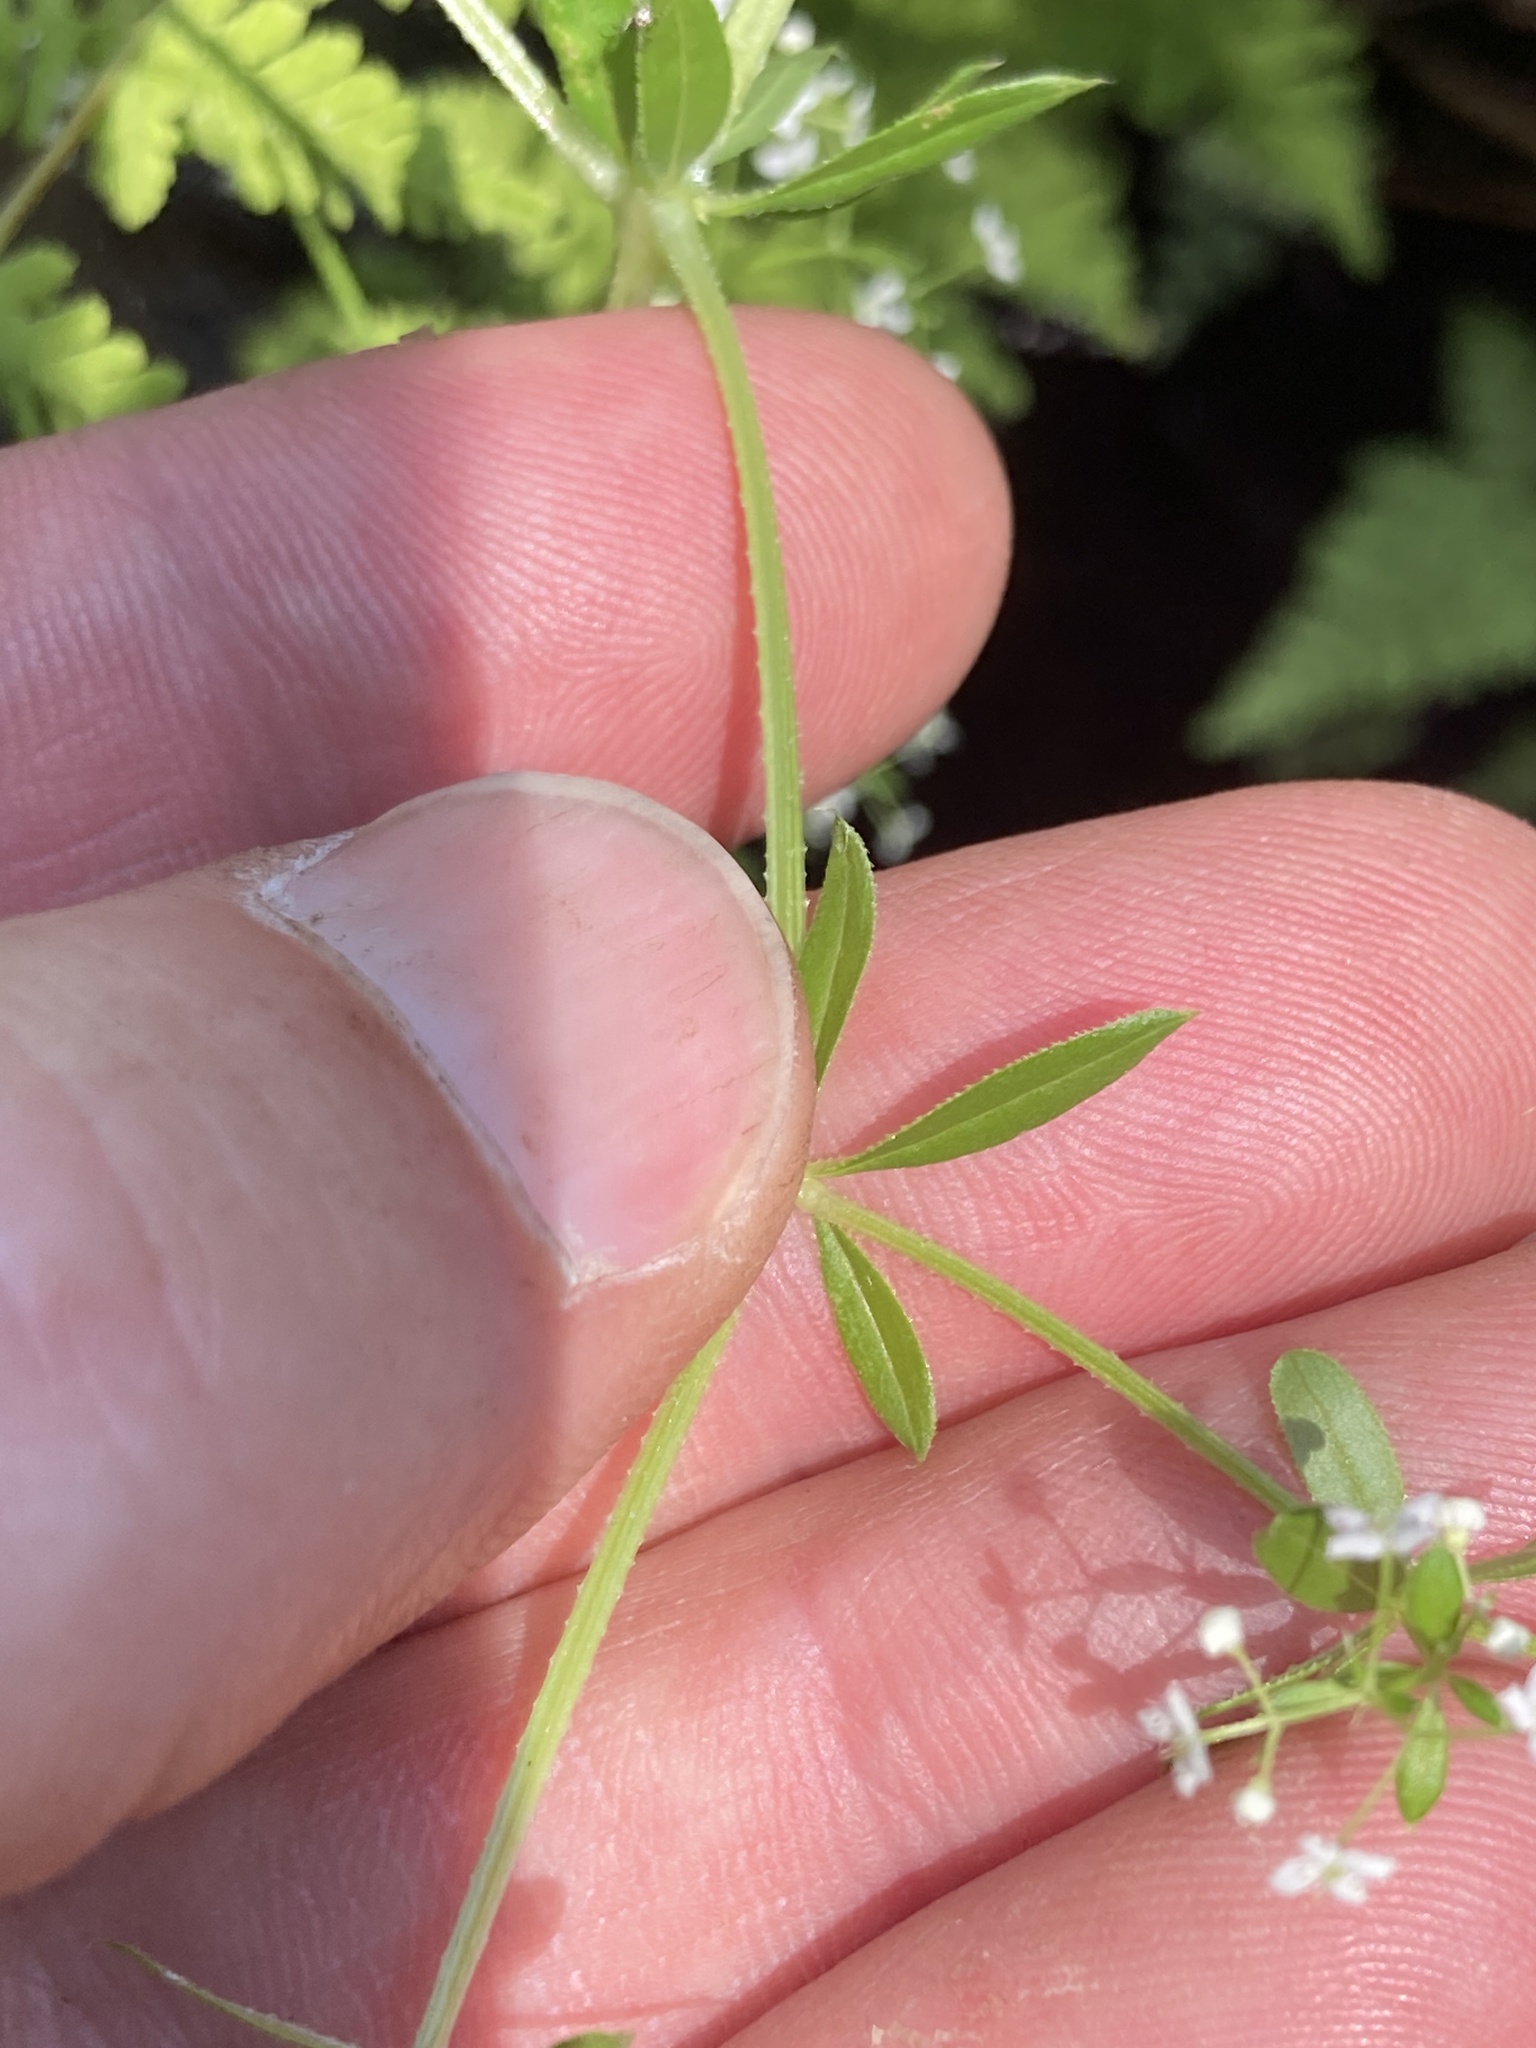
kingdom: Plantae
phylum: Tracheophyta
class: Magnoliopsida
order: Gentianales
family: Rubiaceae
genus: Galium
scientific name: Galium asprellum
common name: Rough bedstraw
